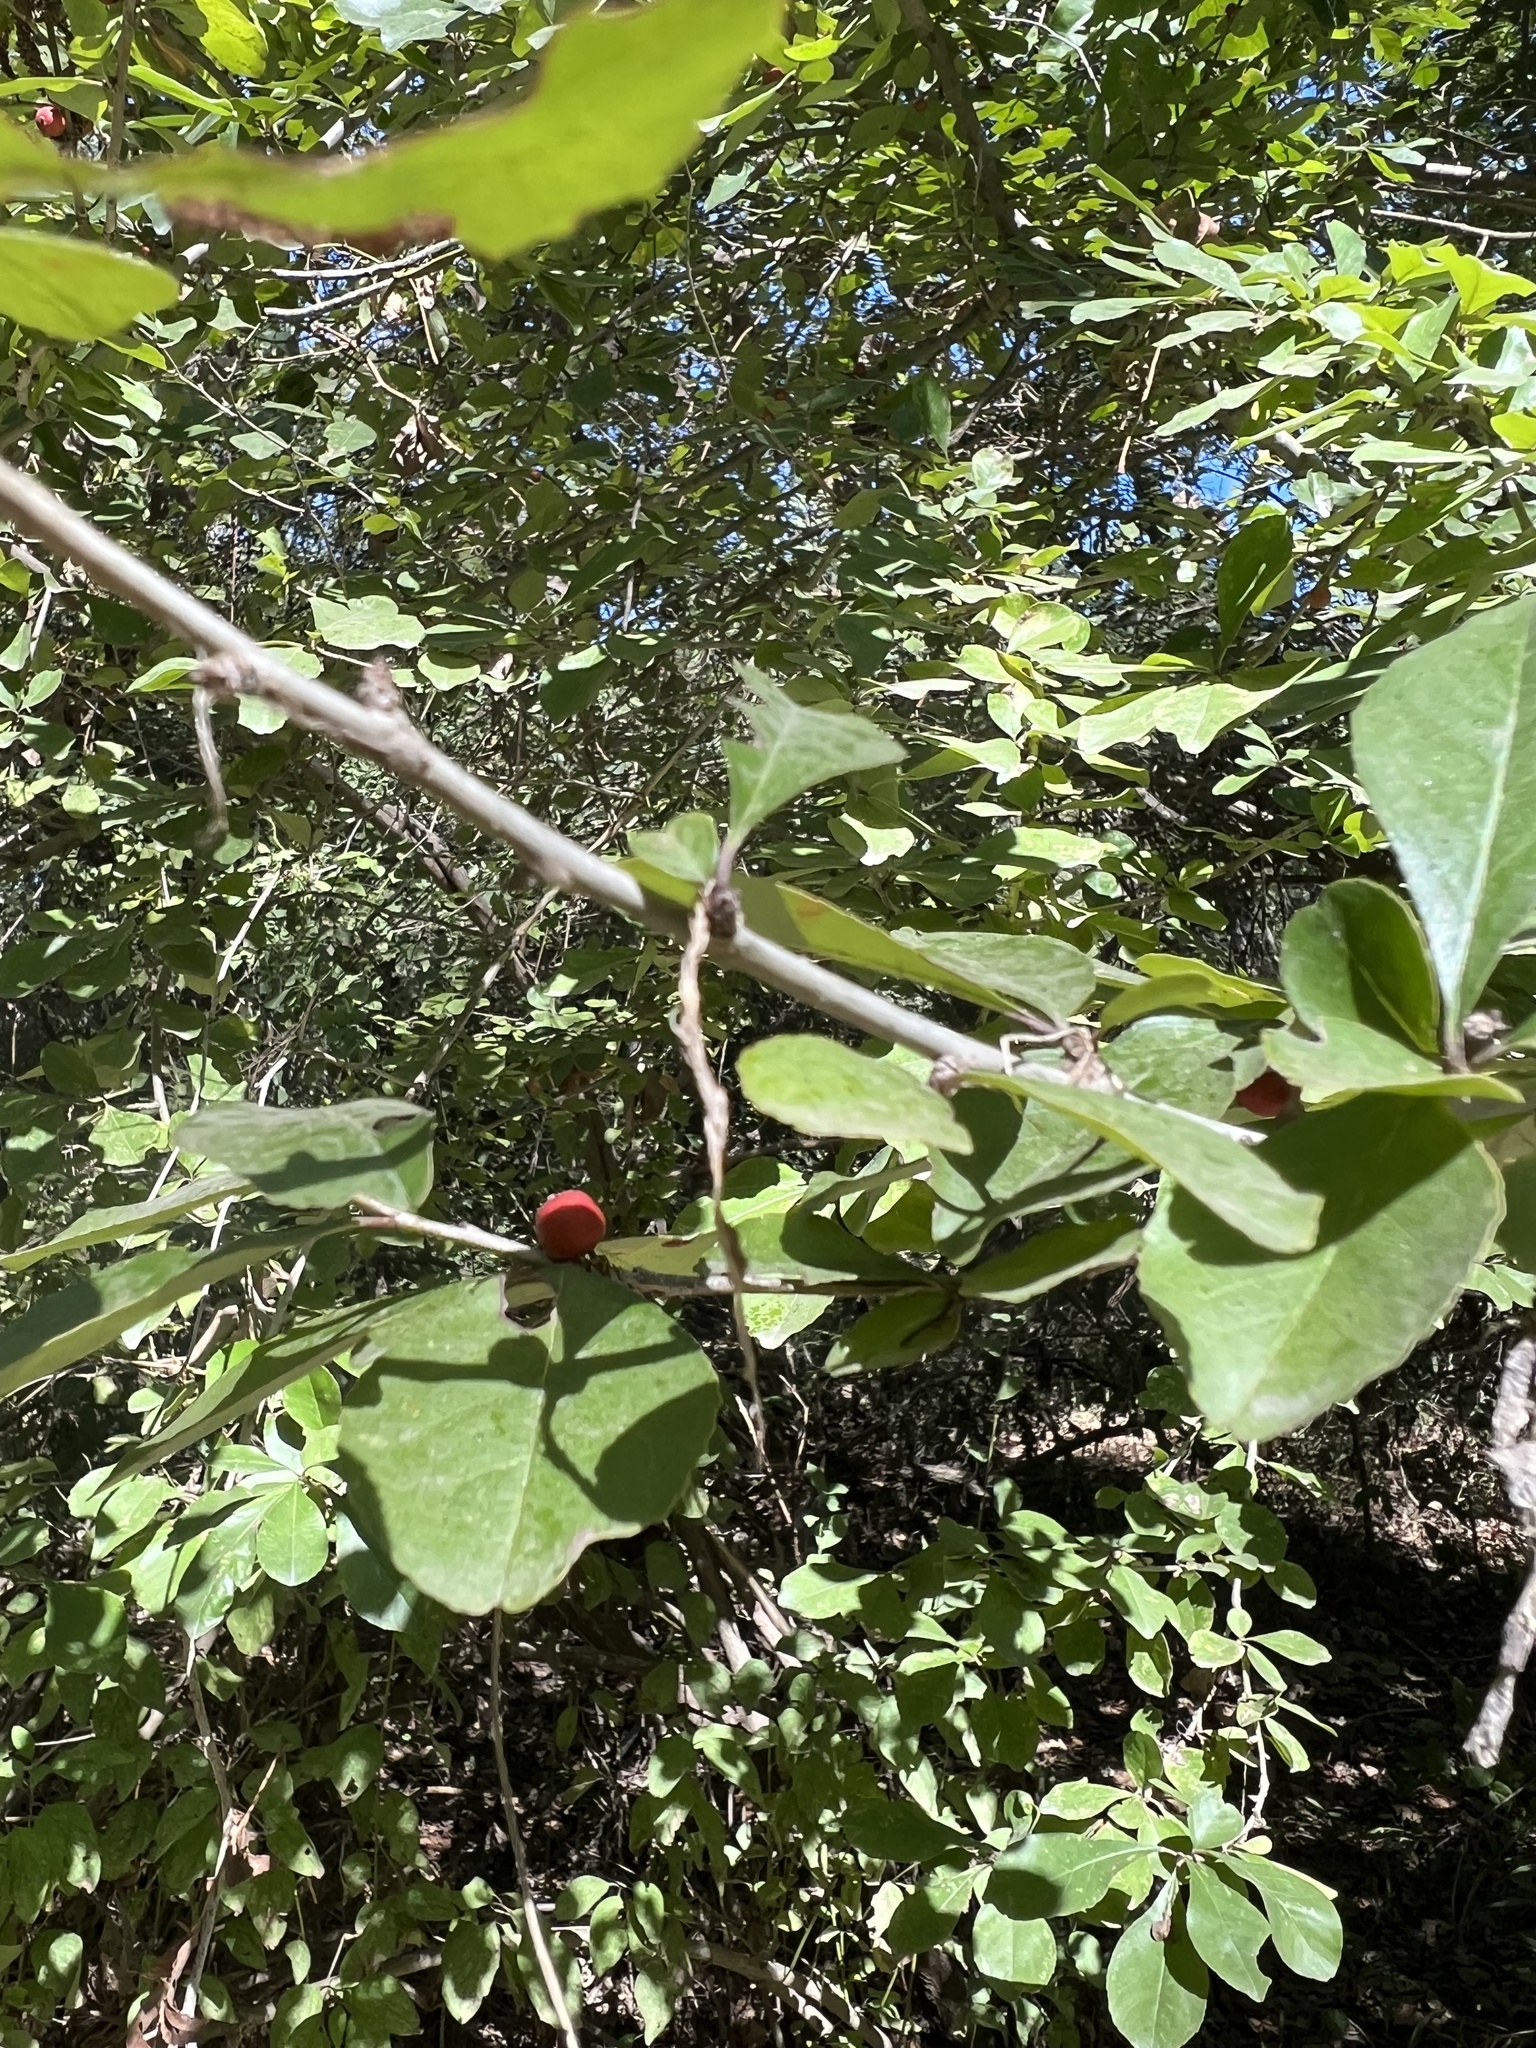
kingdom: Plantae
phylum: Tracheophyta
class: Magnoliopsida
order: Aquifoliales
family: Aquifoliaceae
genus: Ilex
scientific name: Ilex decidua
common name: Possum-haw
